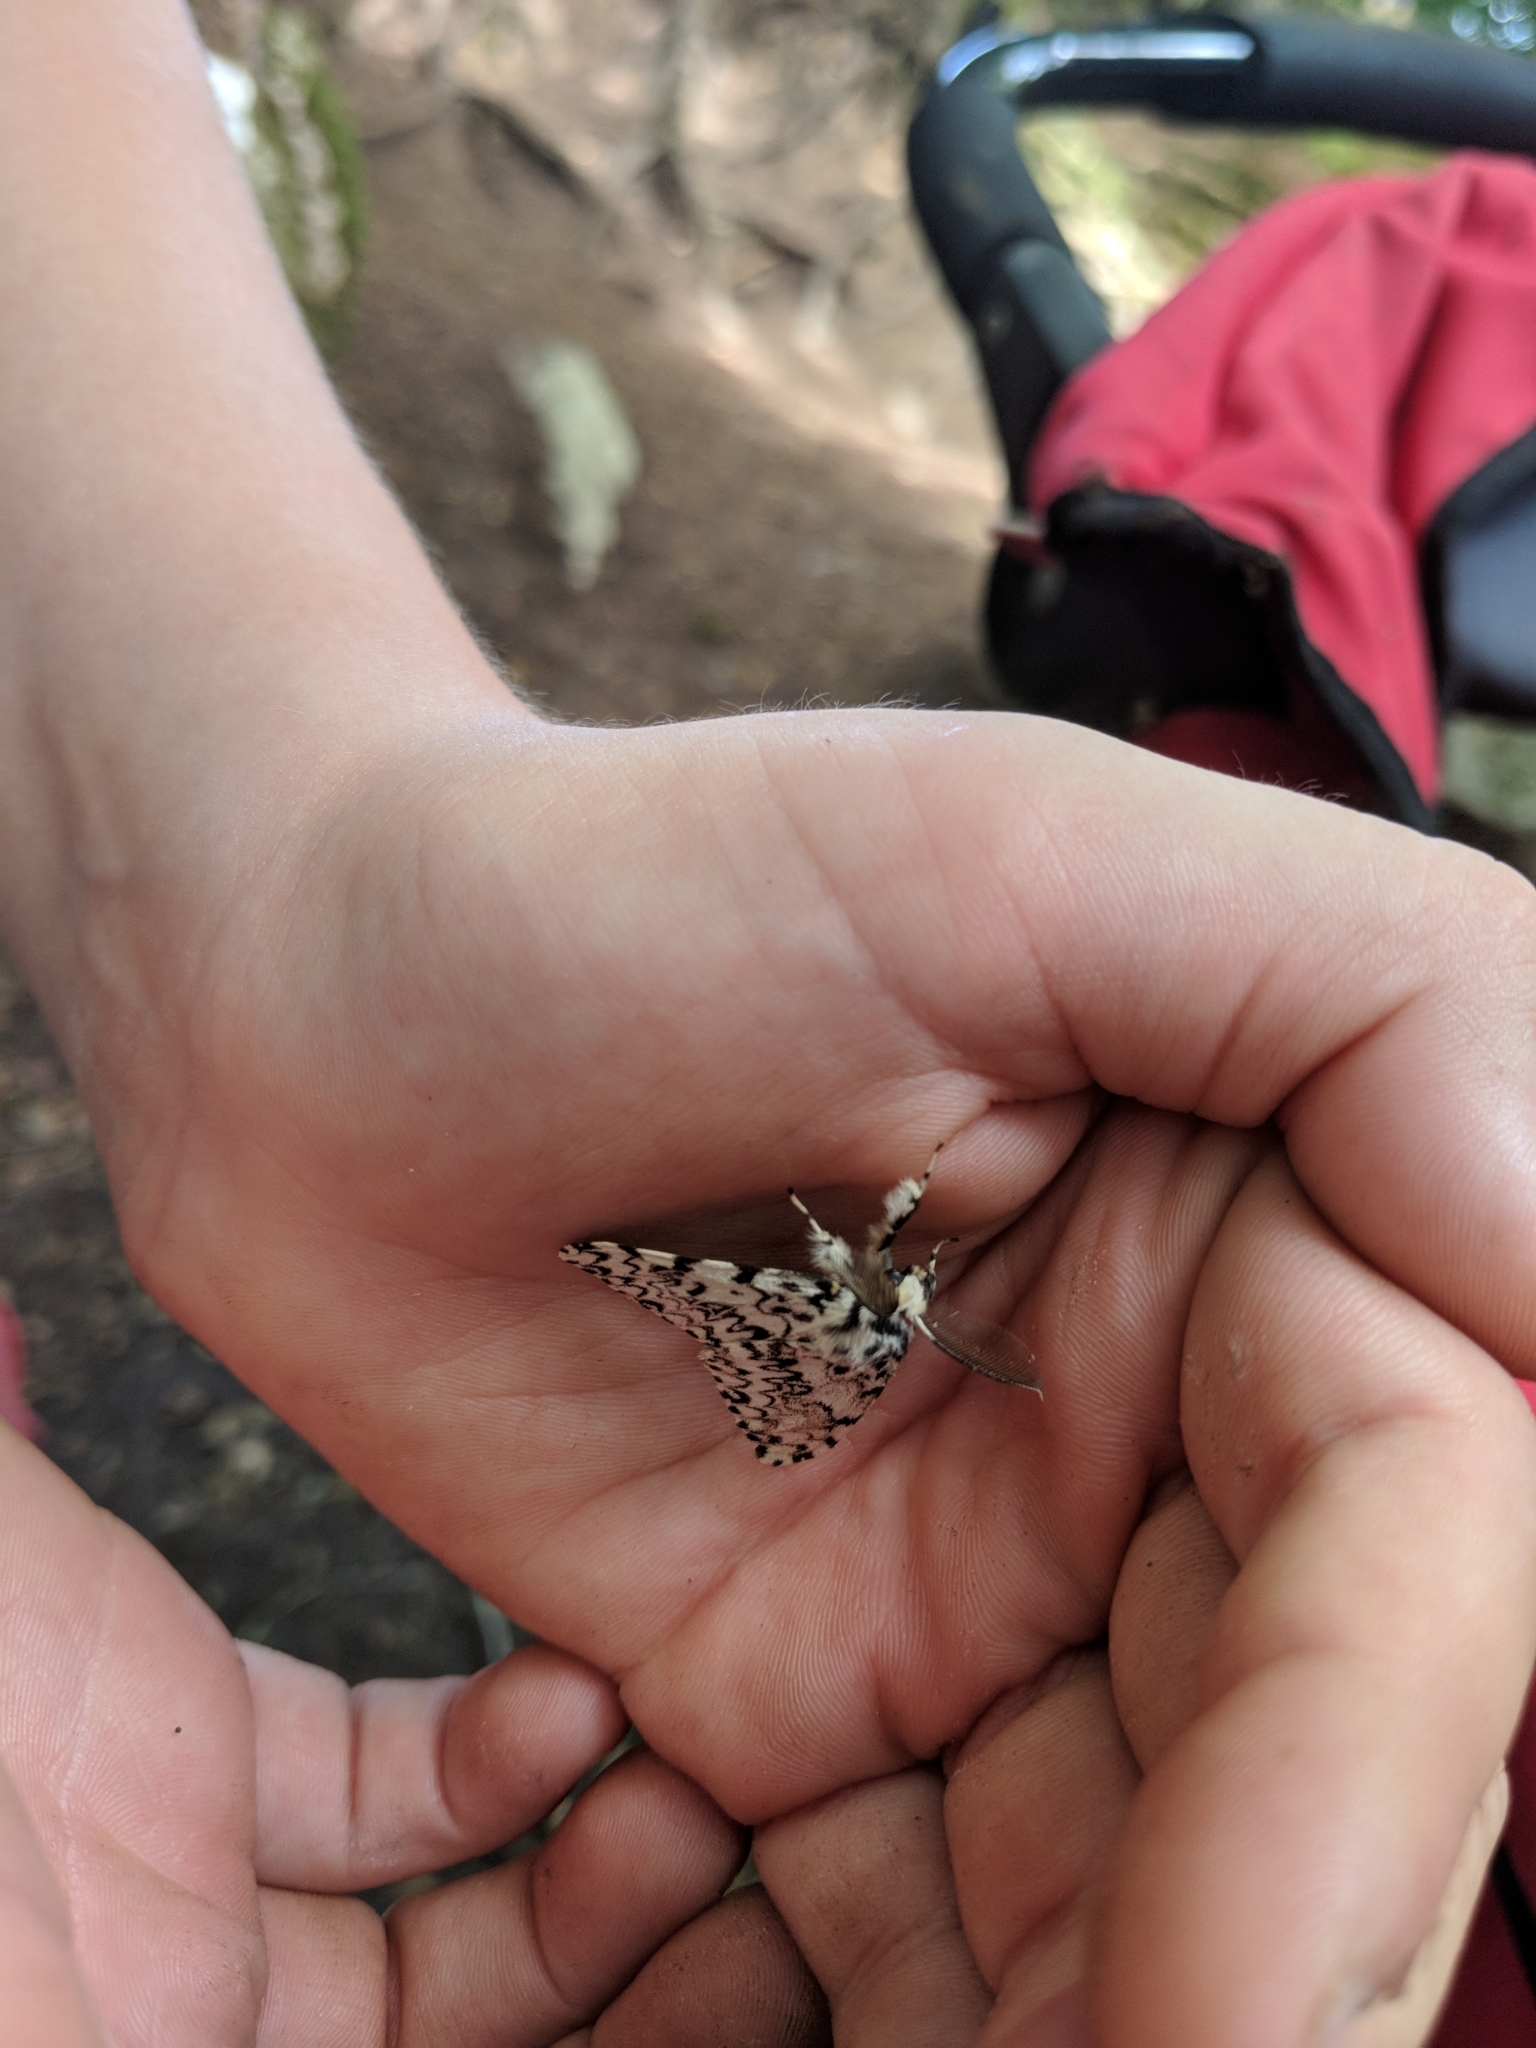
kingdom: Animalia
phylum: Arthropoda
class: Insecta
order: Lepidoptera
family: Erebidae
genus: Lymantria
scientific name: Lymantria monacha
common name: Black arches
